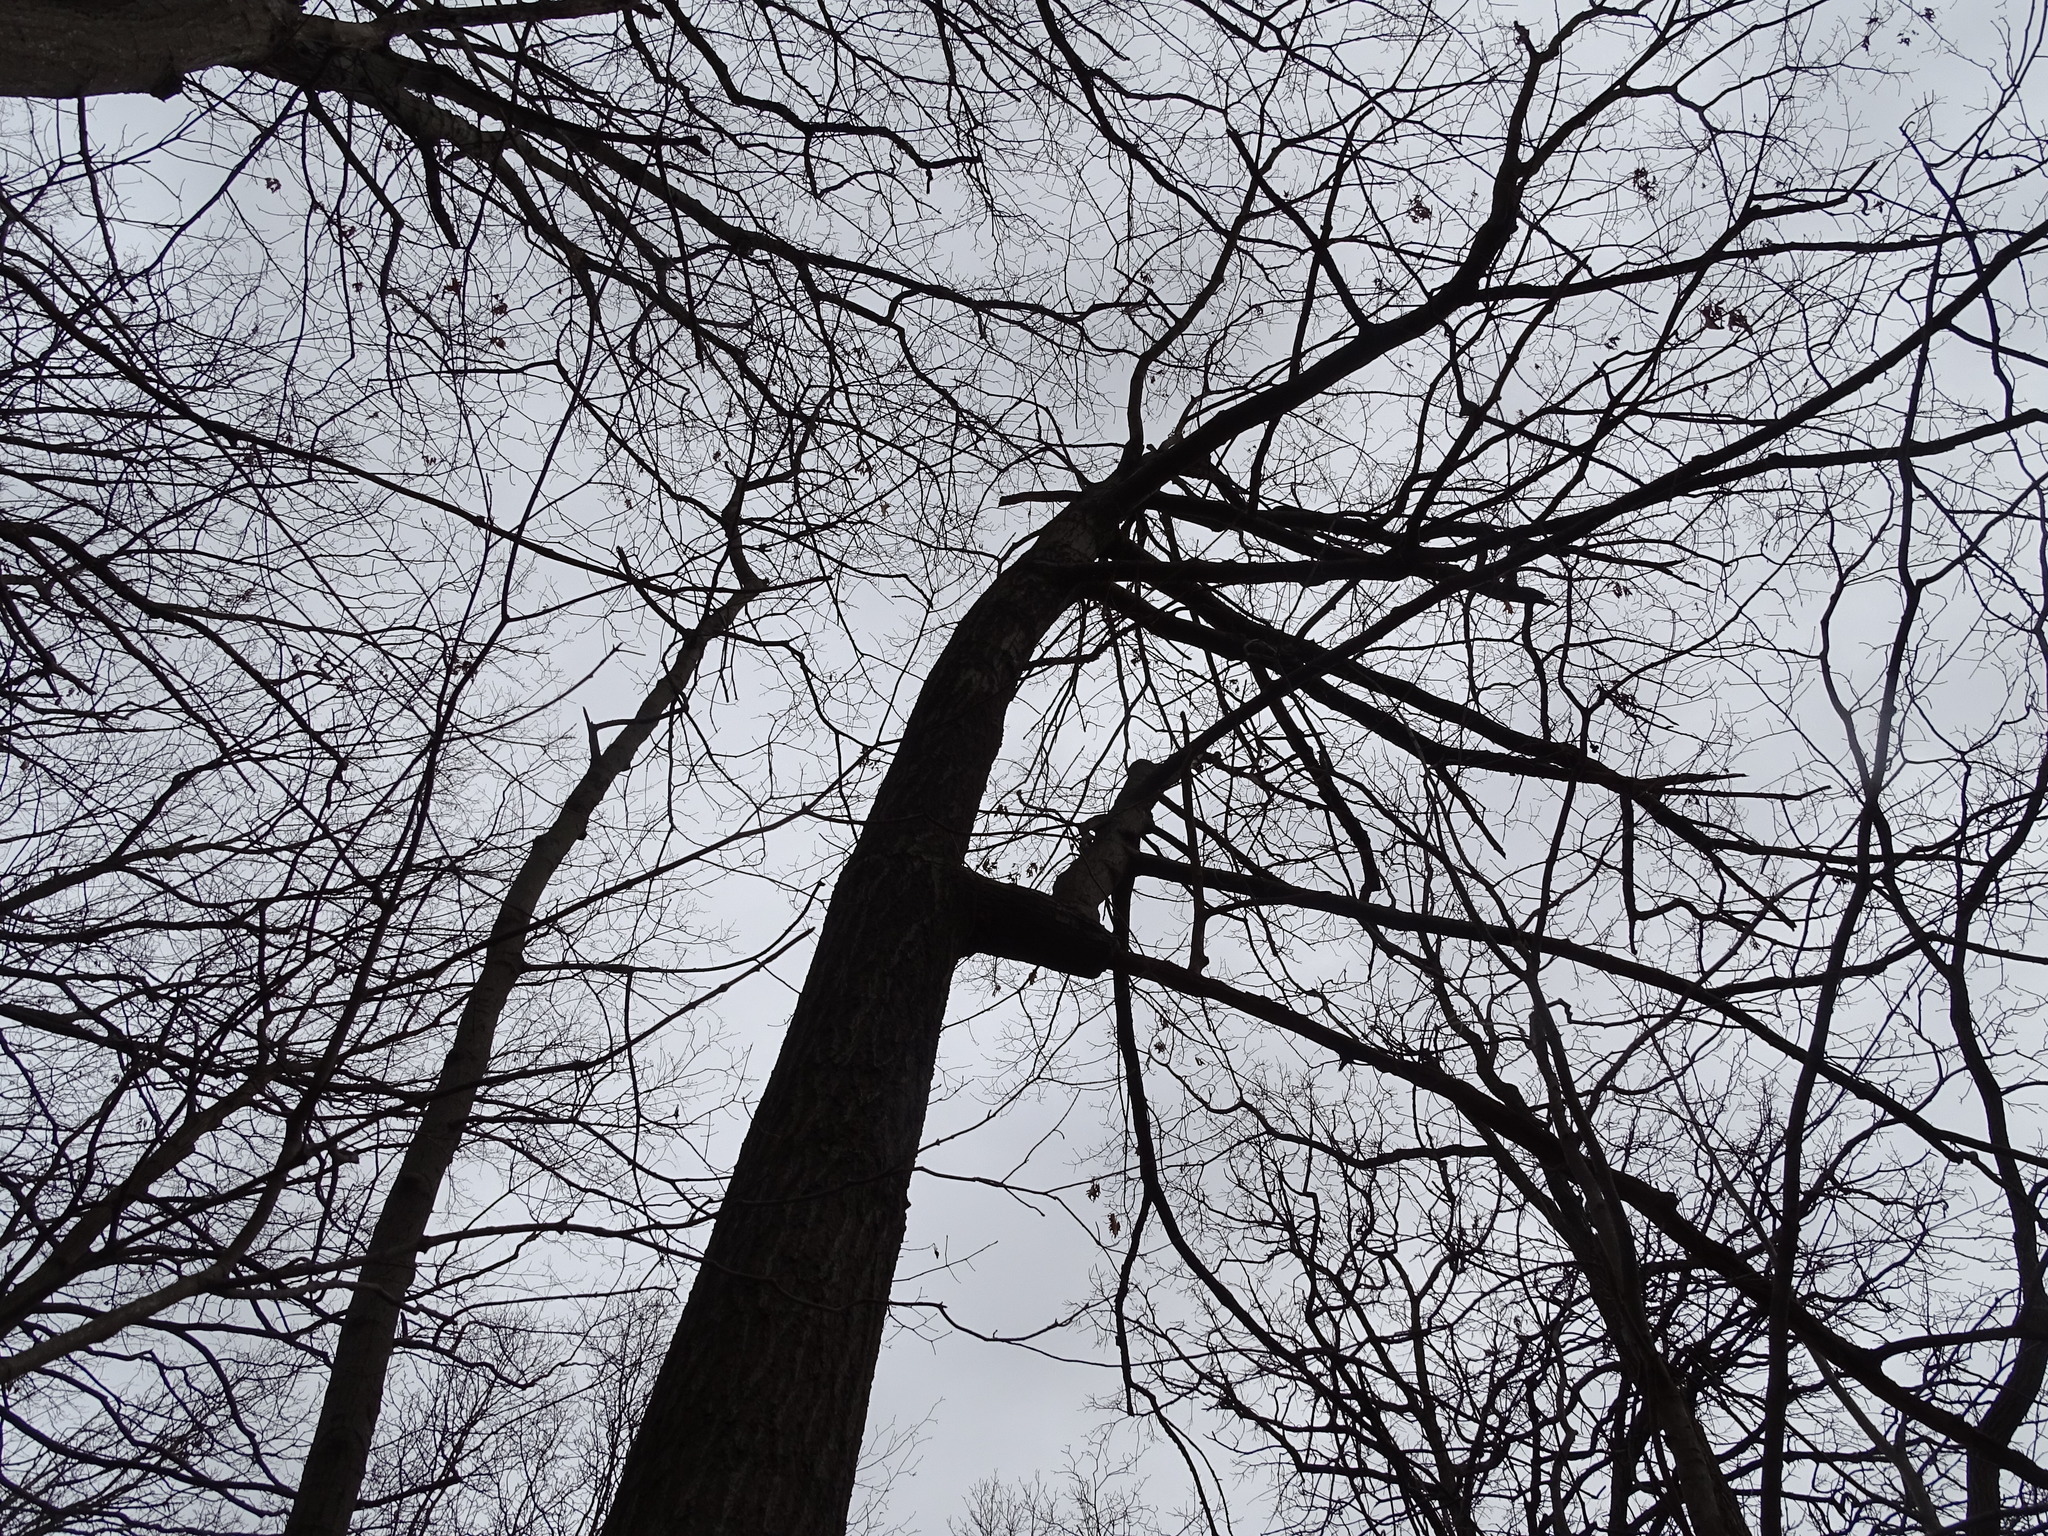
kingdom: Plantae
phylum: Tracheophyta
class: Magnoliopsida
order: Fagales
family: Fagaceae
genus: Quercus
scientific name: Quercus rubra
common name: Red oak
